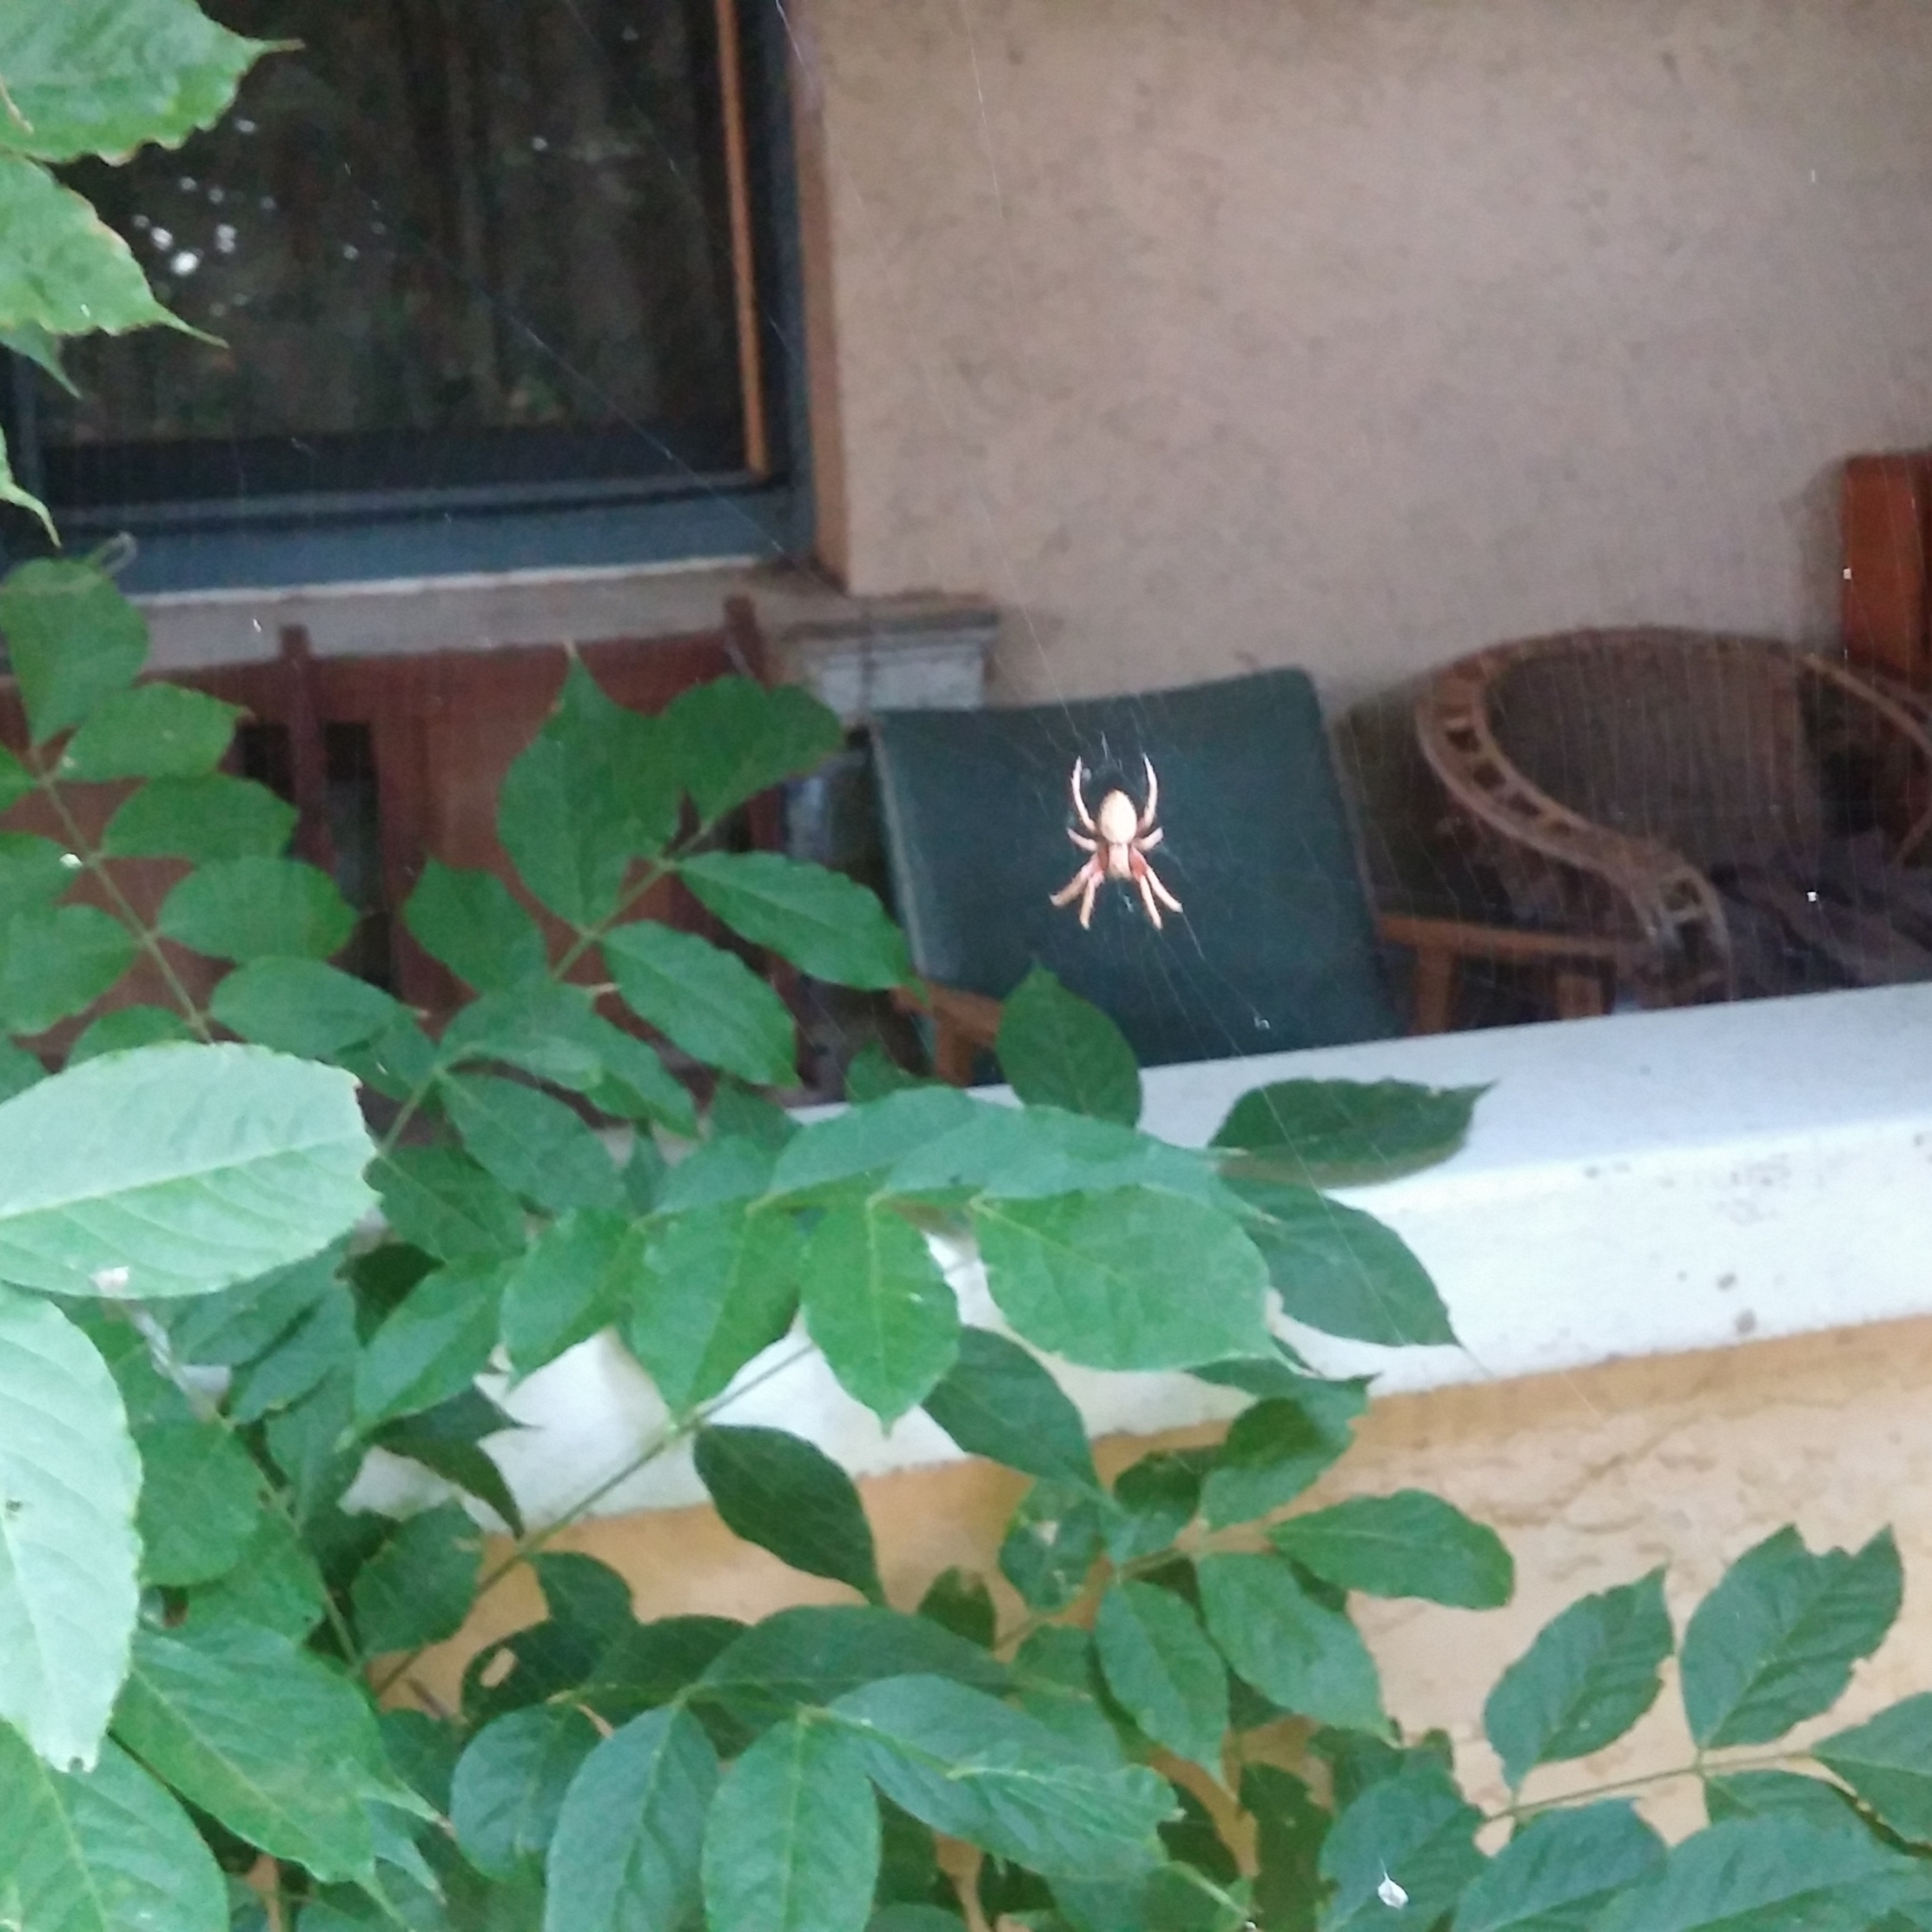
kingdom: Animalia
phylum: Arthropoda
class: Arachnida
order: Araneae
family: Araneidae
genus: Hortophora
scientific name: Hortophora biapicata
